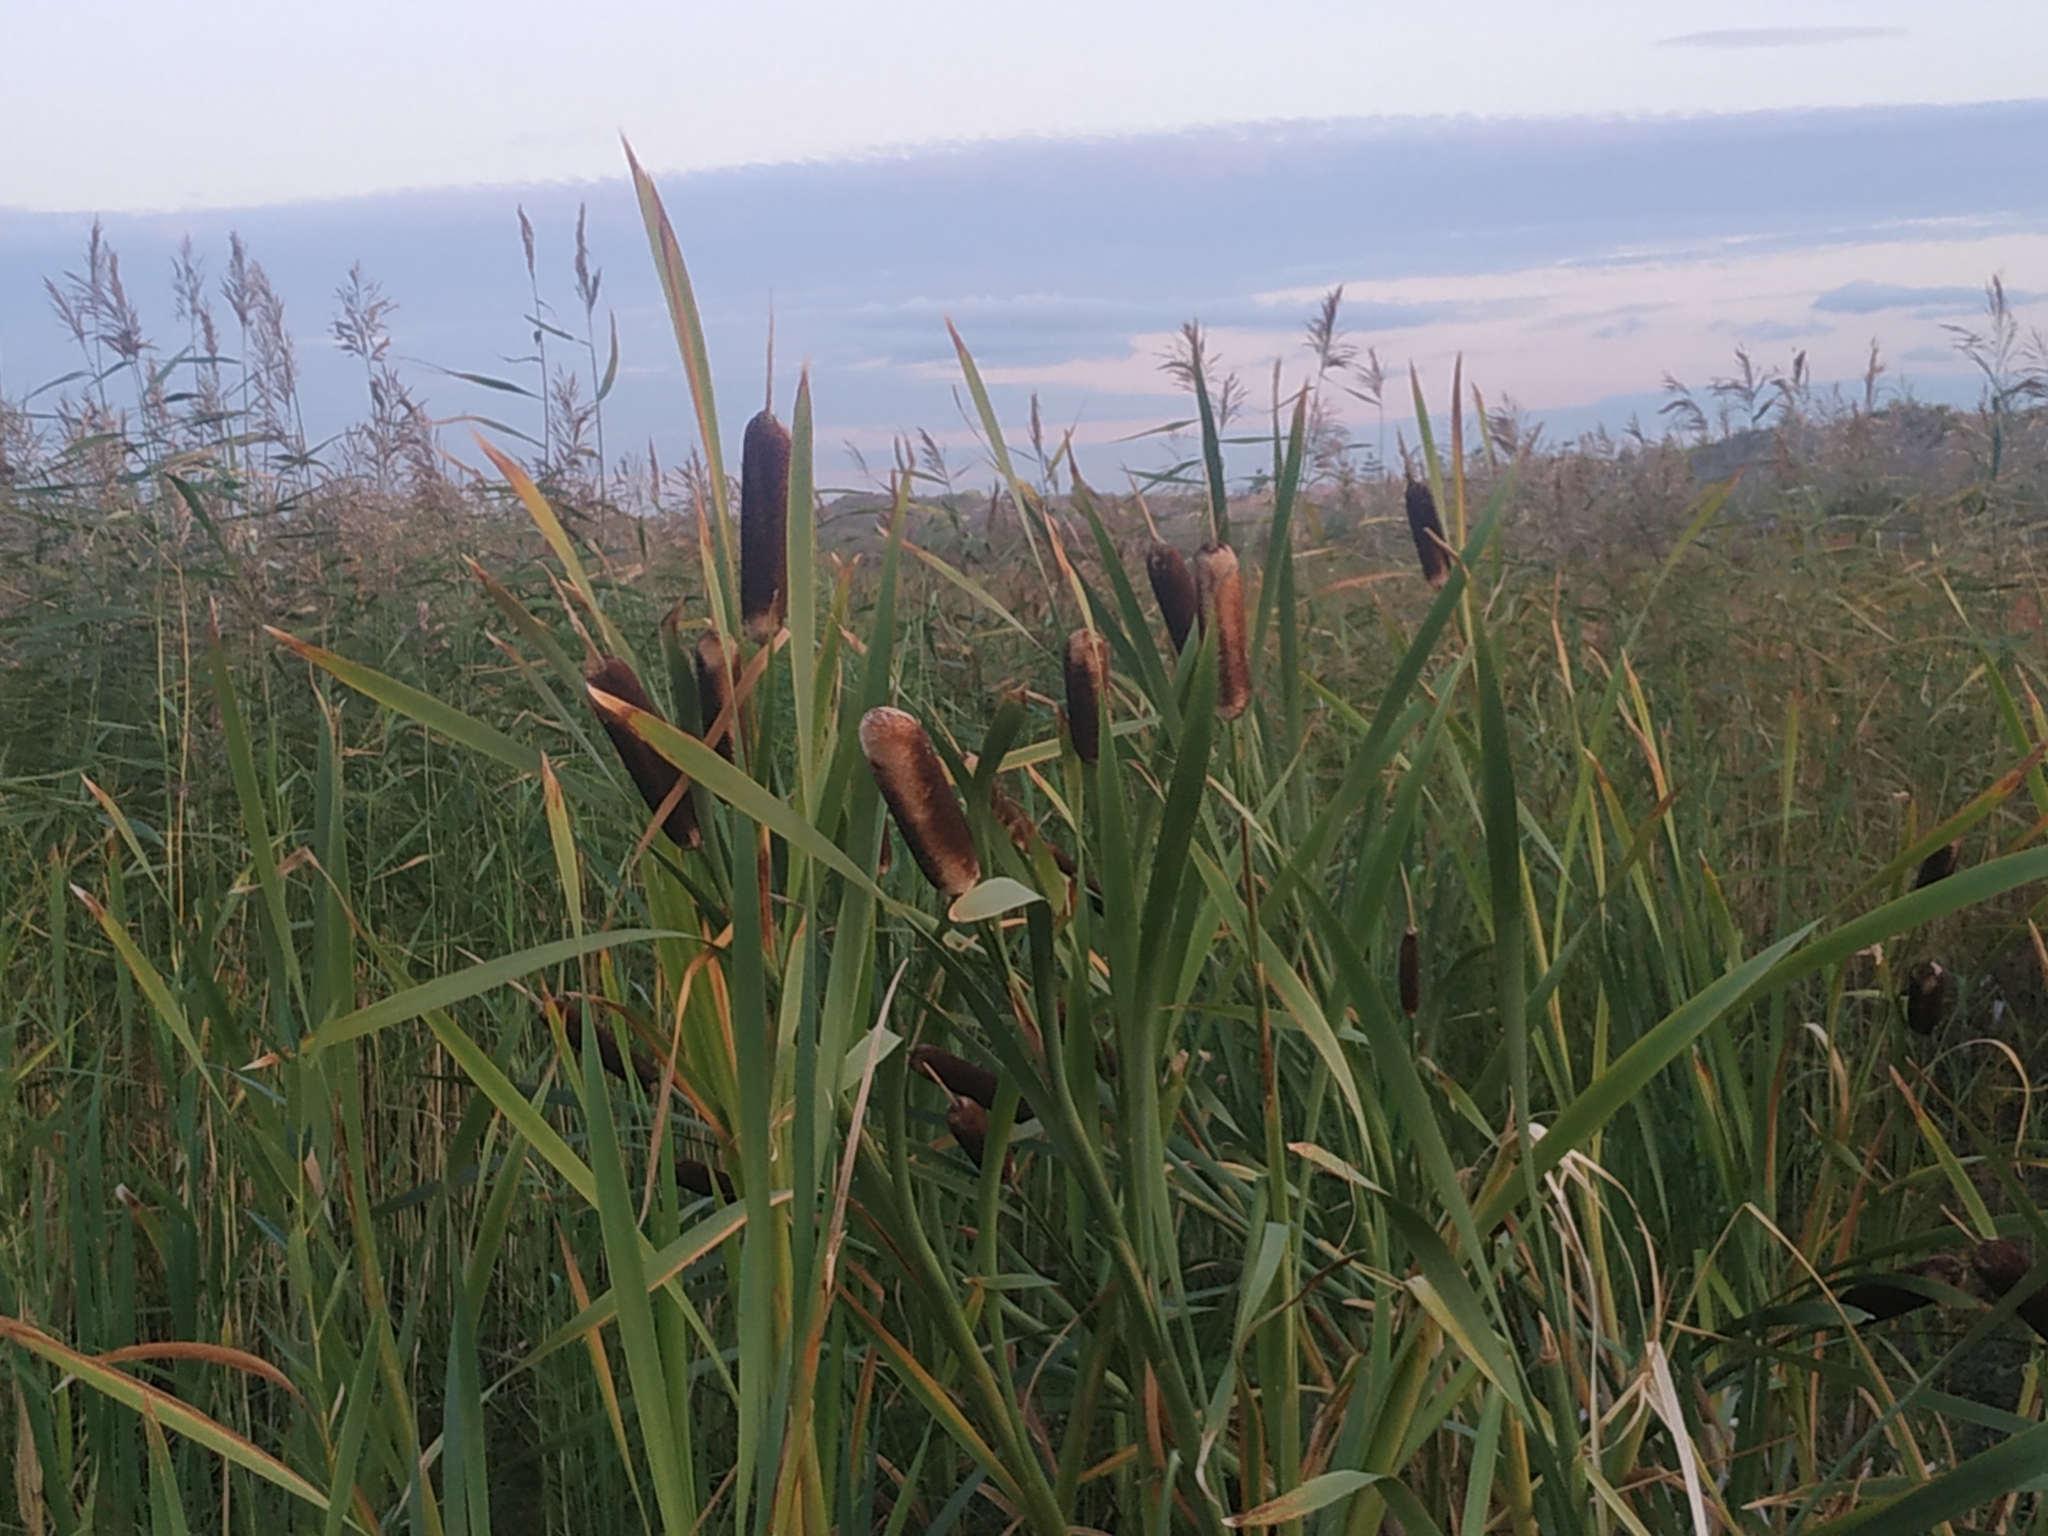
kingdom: Plantae
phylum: Tracheophyta
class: Liliopsida
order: Poales
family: Typhaceae
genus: Typha
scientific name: Typha latifolia
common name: Broadleaf cattail
